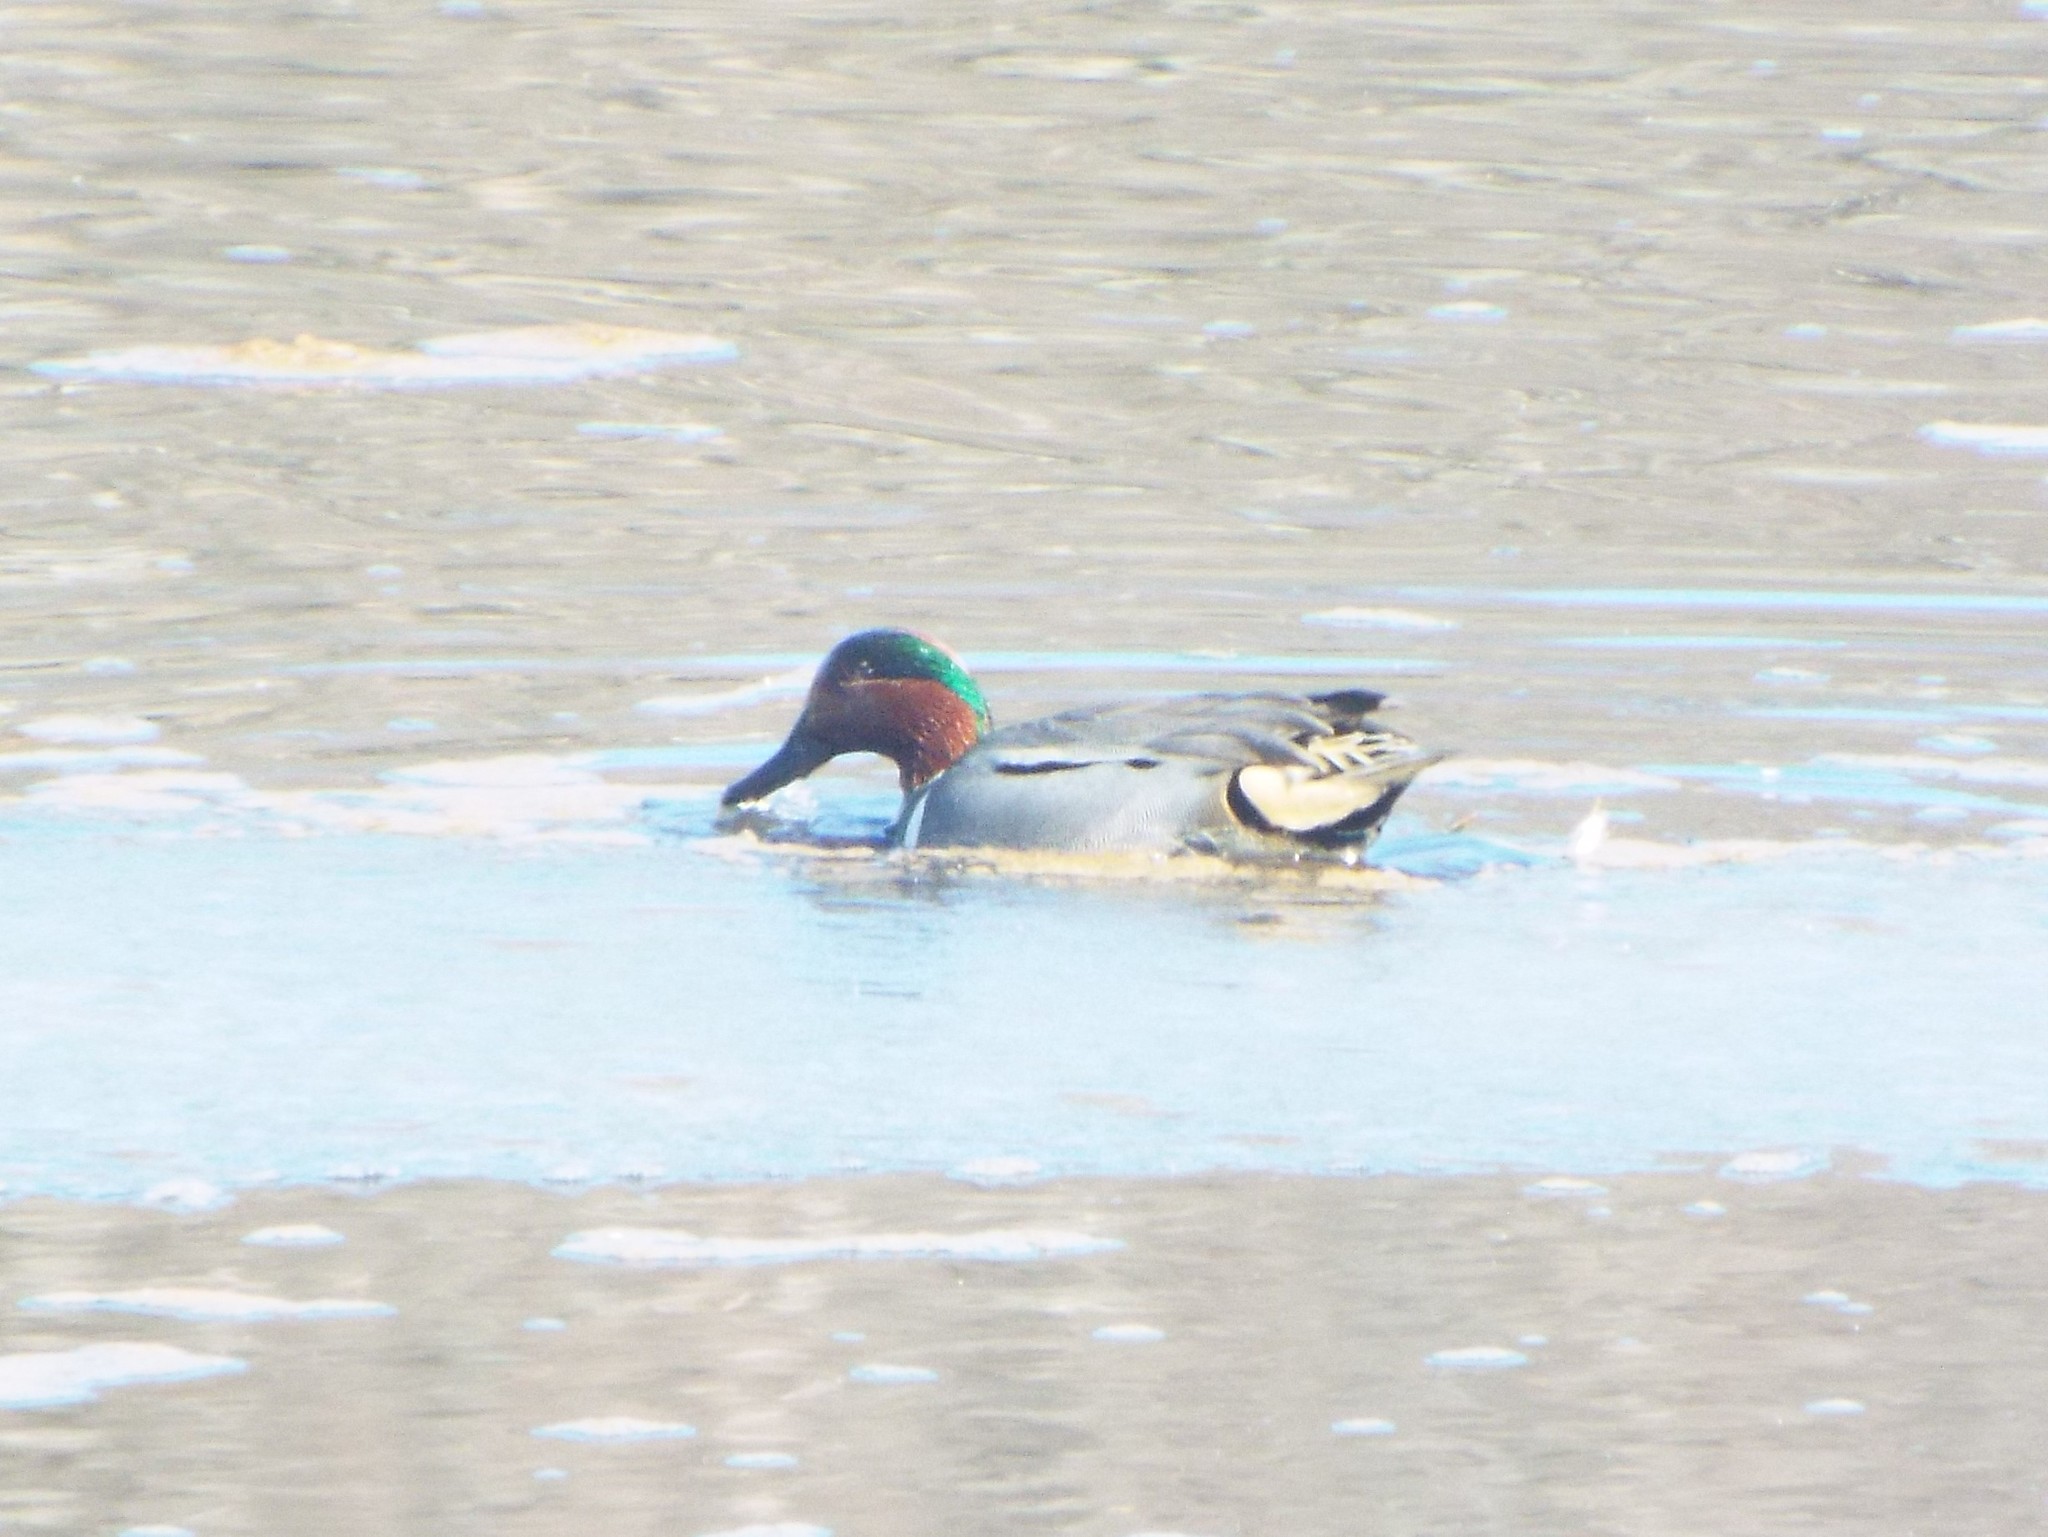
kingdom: Animalia
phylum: Chordata
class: Aves
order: Anseriformes
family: Anatidae
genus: Anas
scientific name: Anas carolinensis
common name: Green-winged teal
